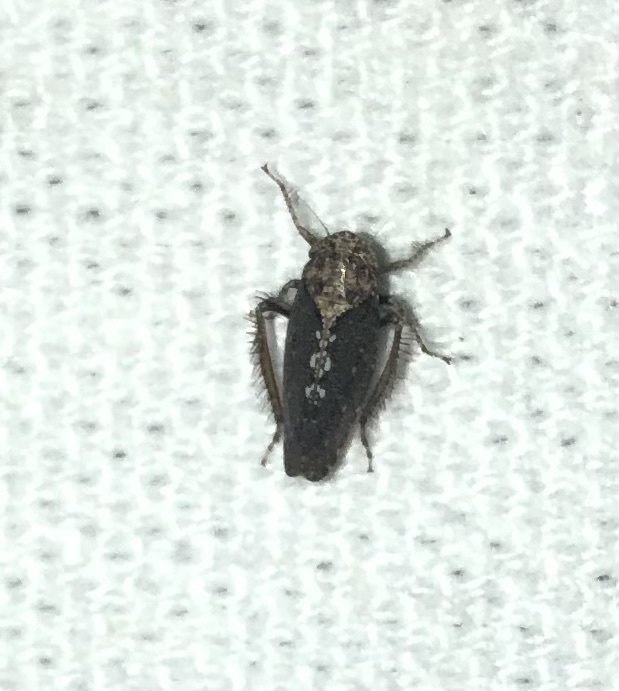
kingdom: Animalia
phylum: Arthropoda
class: Insecta
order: Hemiptera
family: Cicadellidae
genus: Excultanus
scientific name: Excultanus excultus
